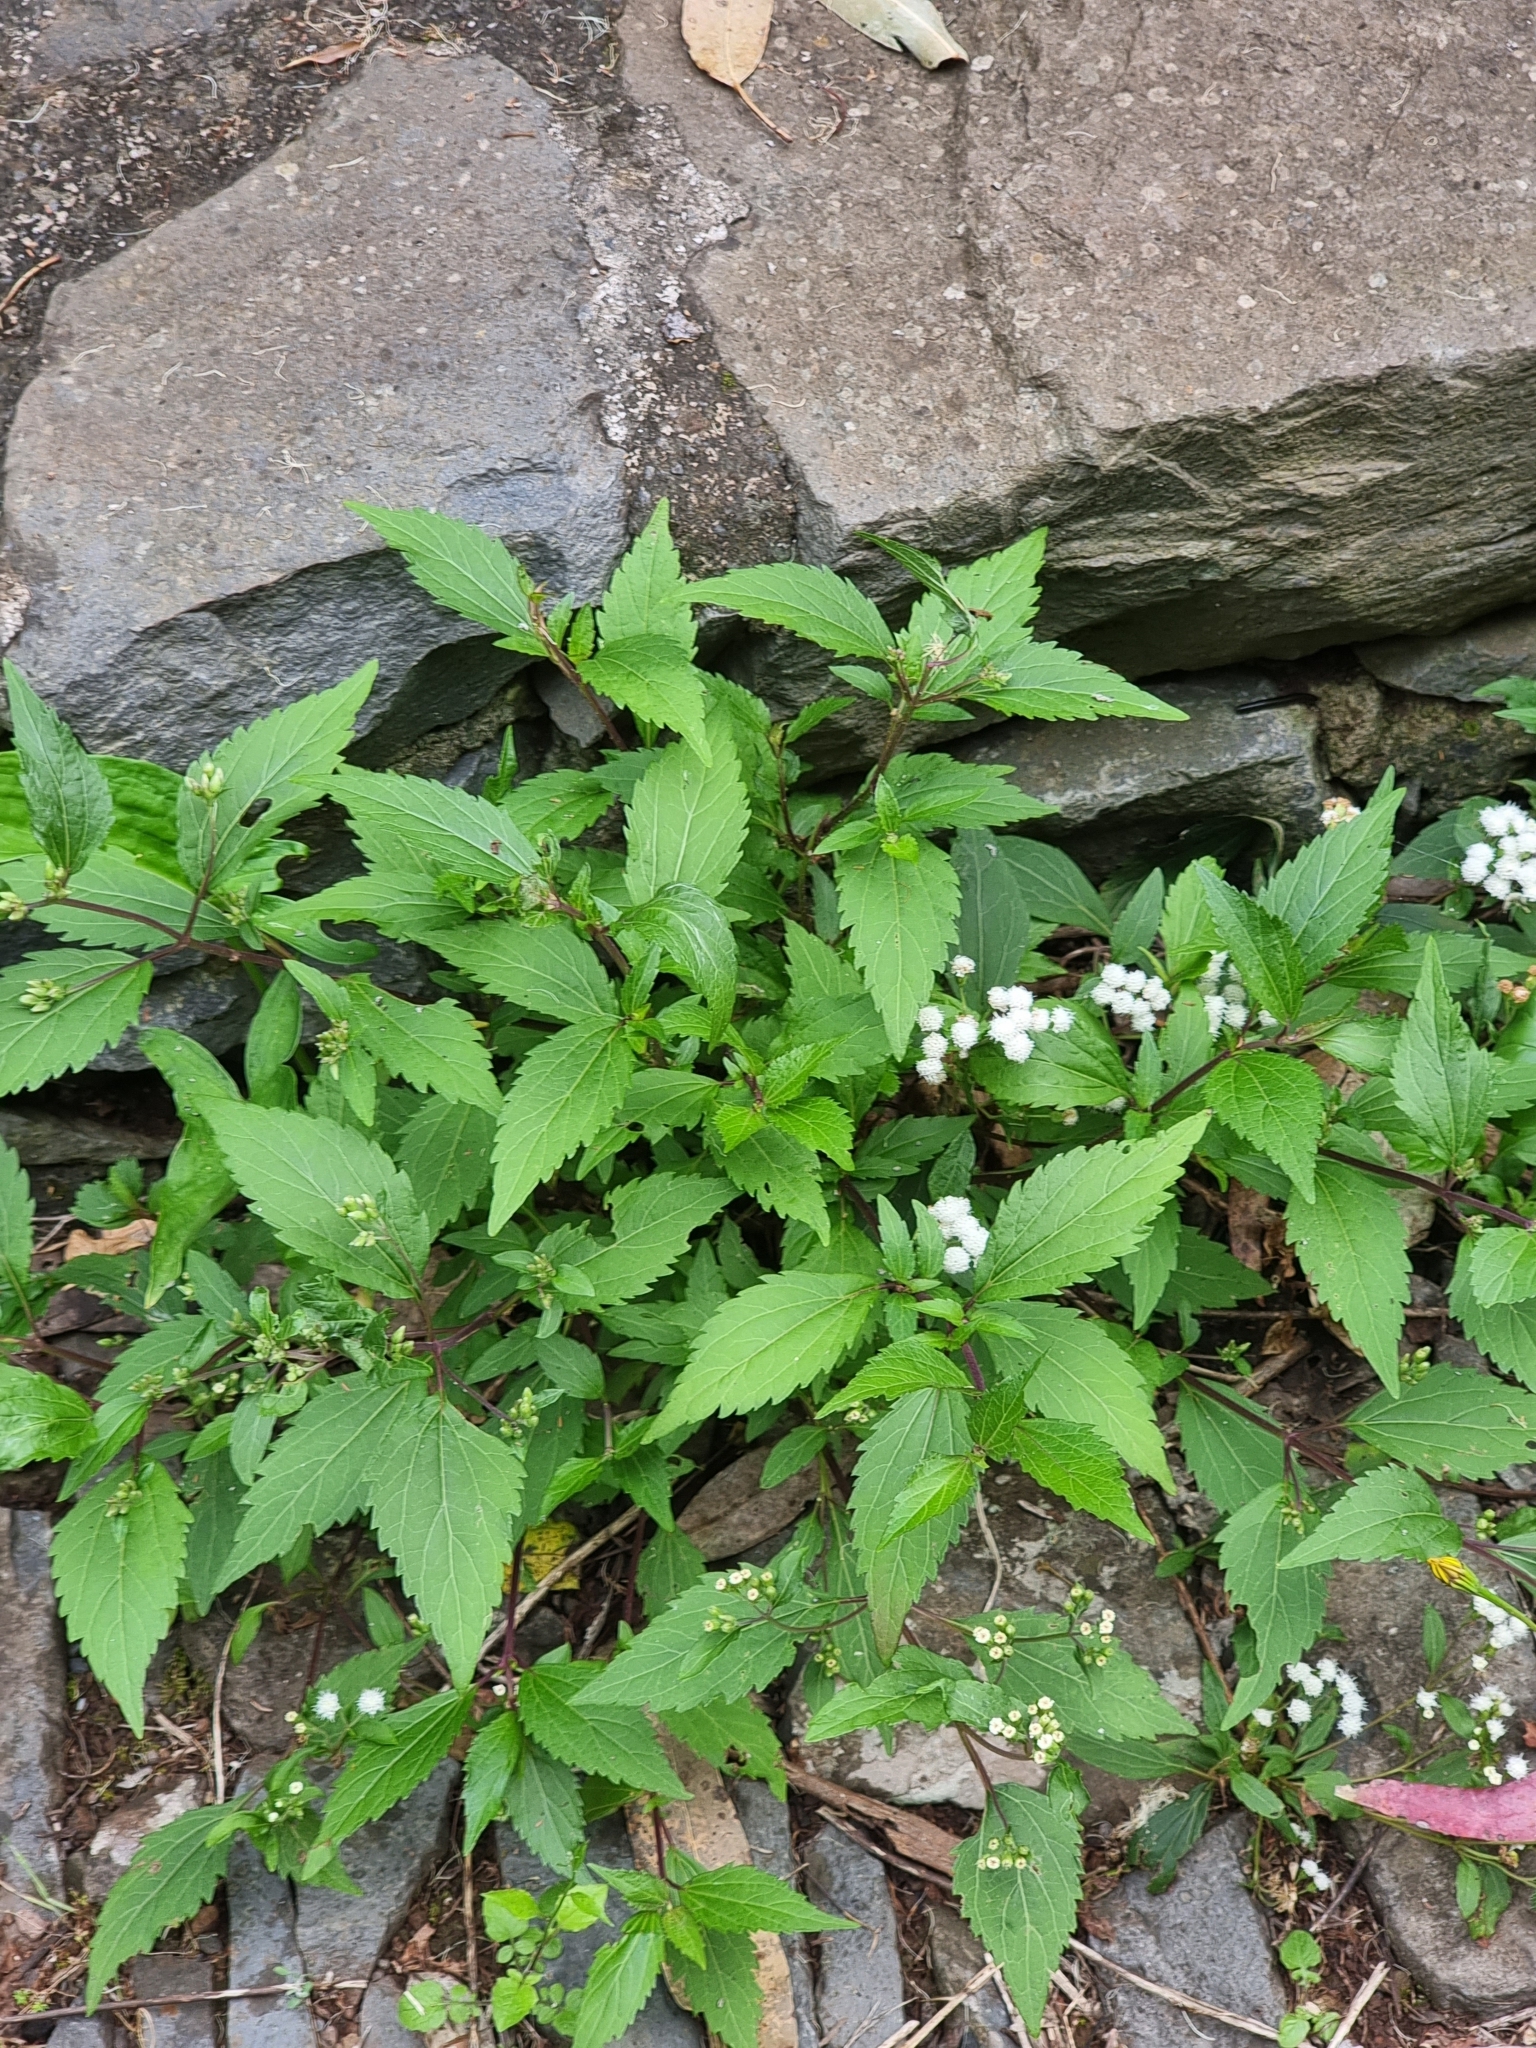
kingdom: Plantae
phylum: Tracheophyta
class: Magnoliopsida
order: Asterales
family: Asteraceae
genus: Ageratina
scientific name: Ageratina riparia
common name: Creeping croftonweed
